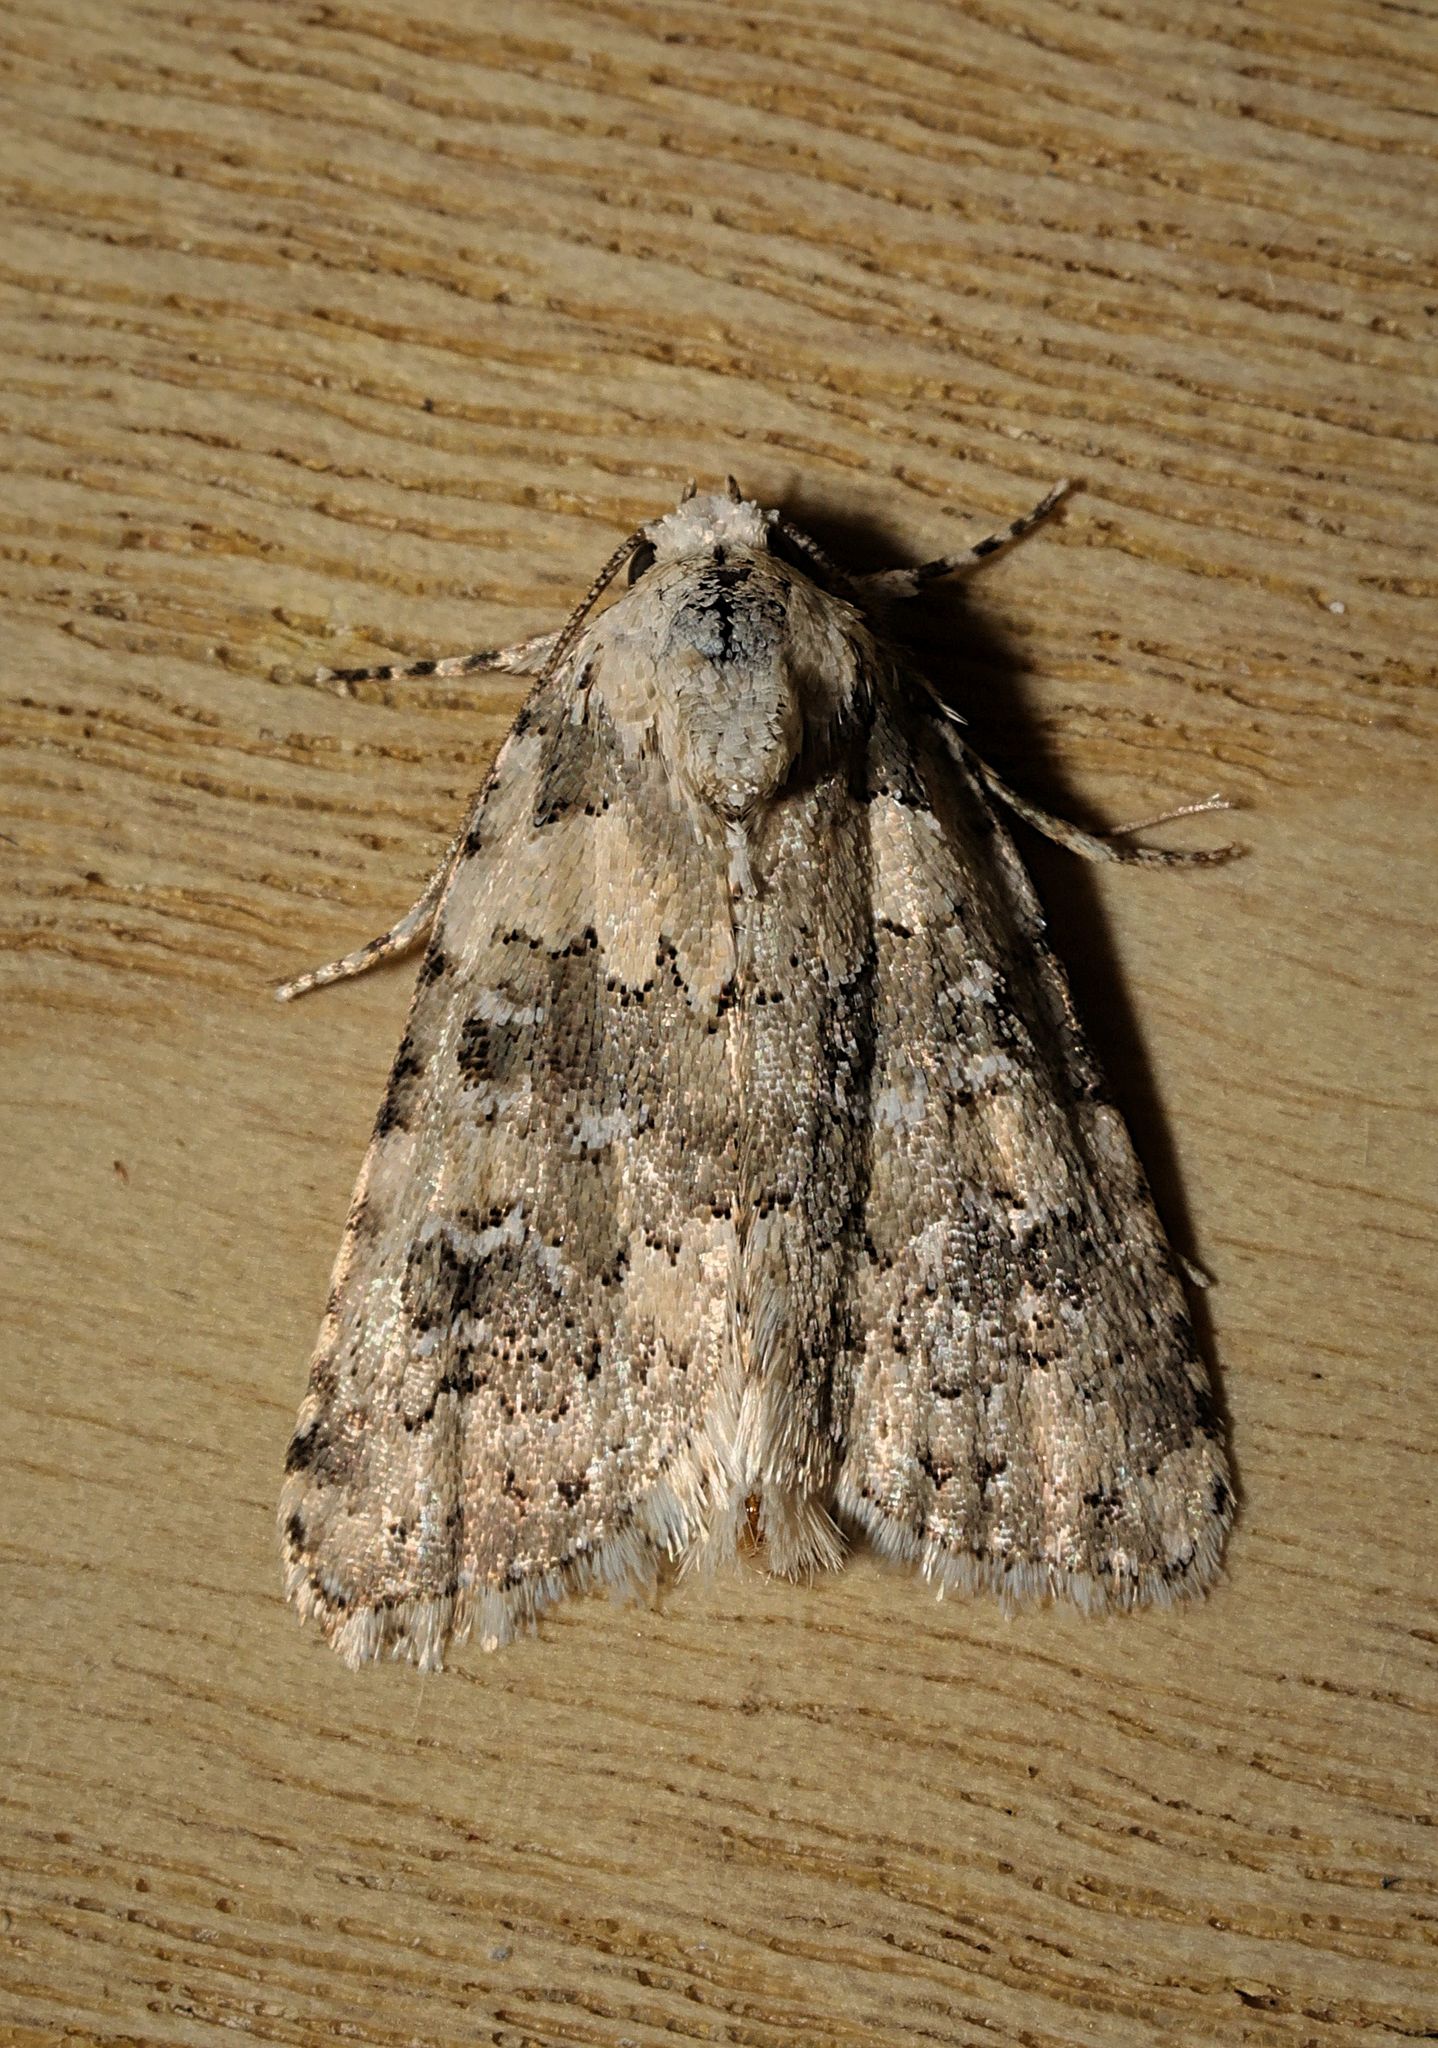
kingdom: Animalia
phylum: Arthropoda
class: Insecta
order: Lepidoptera
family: Noctuidae
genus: Bryophila
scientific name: Bryophila domestica
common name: Marbled beauty
